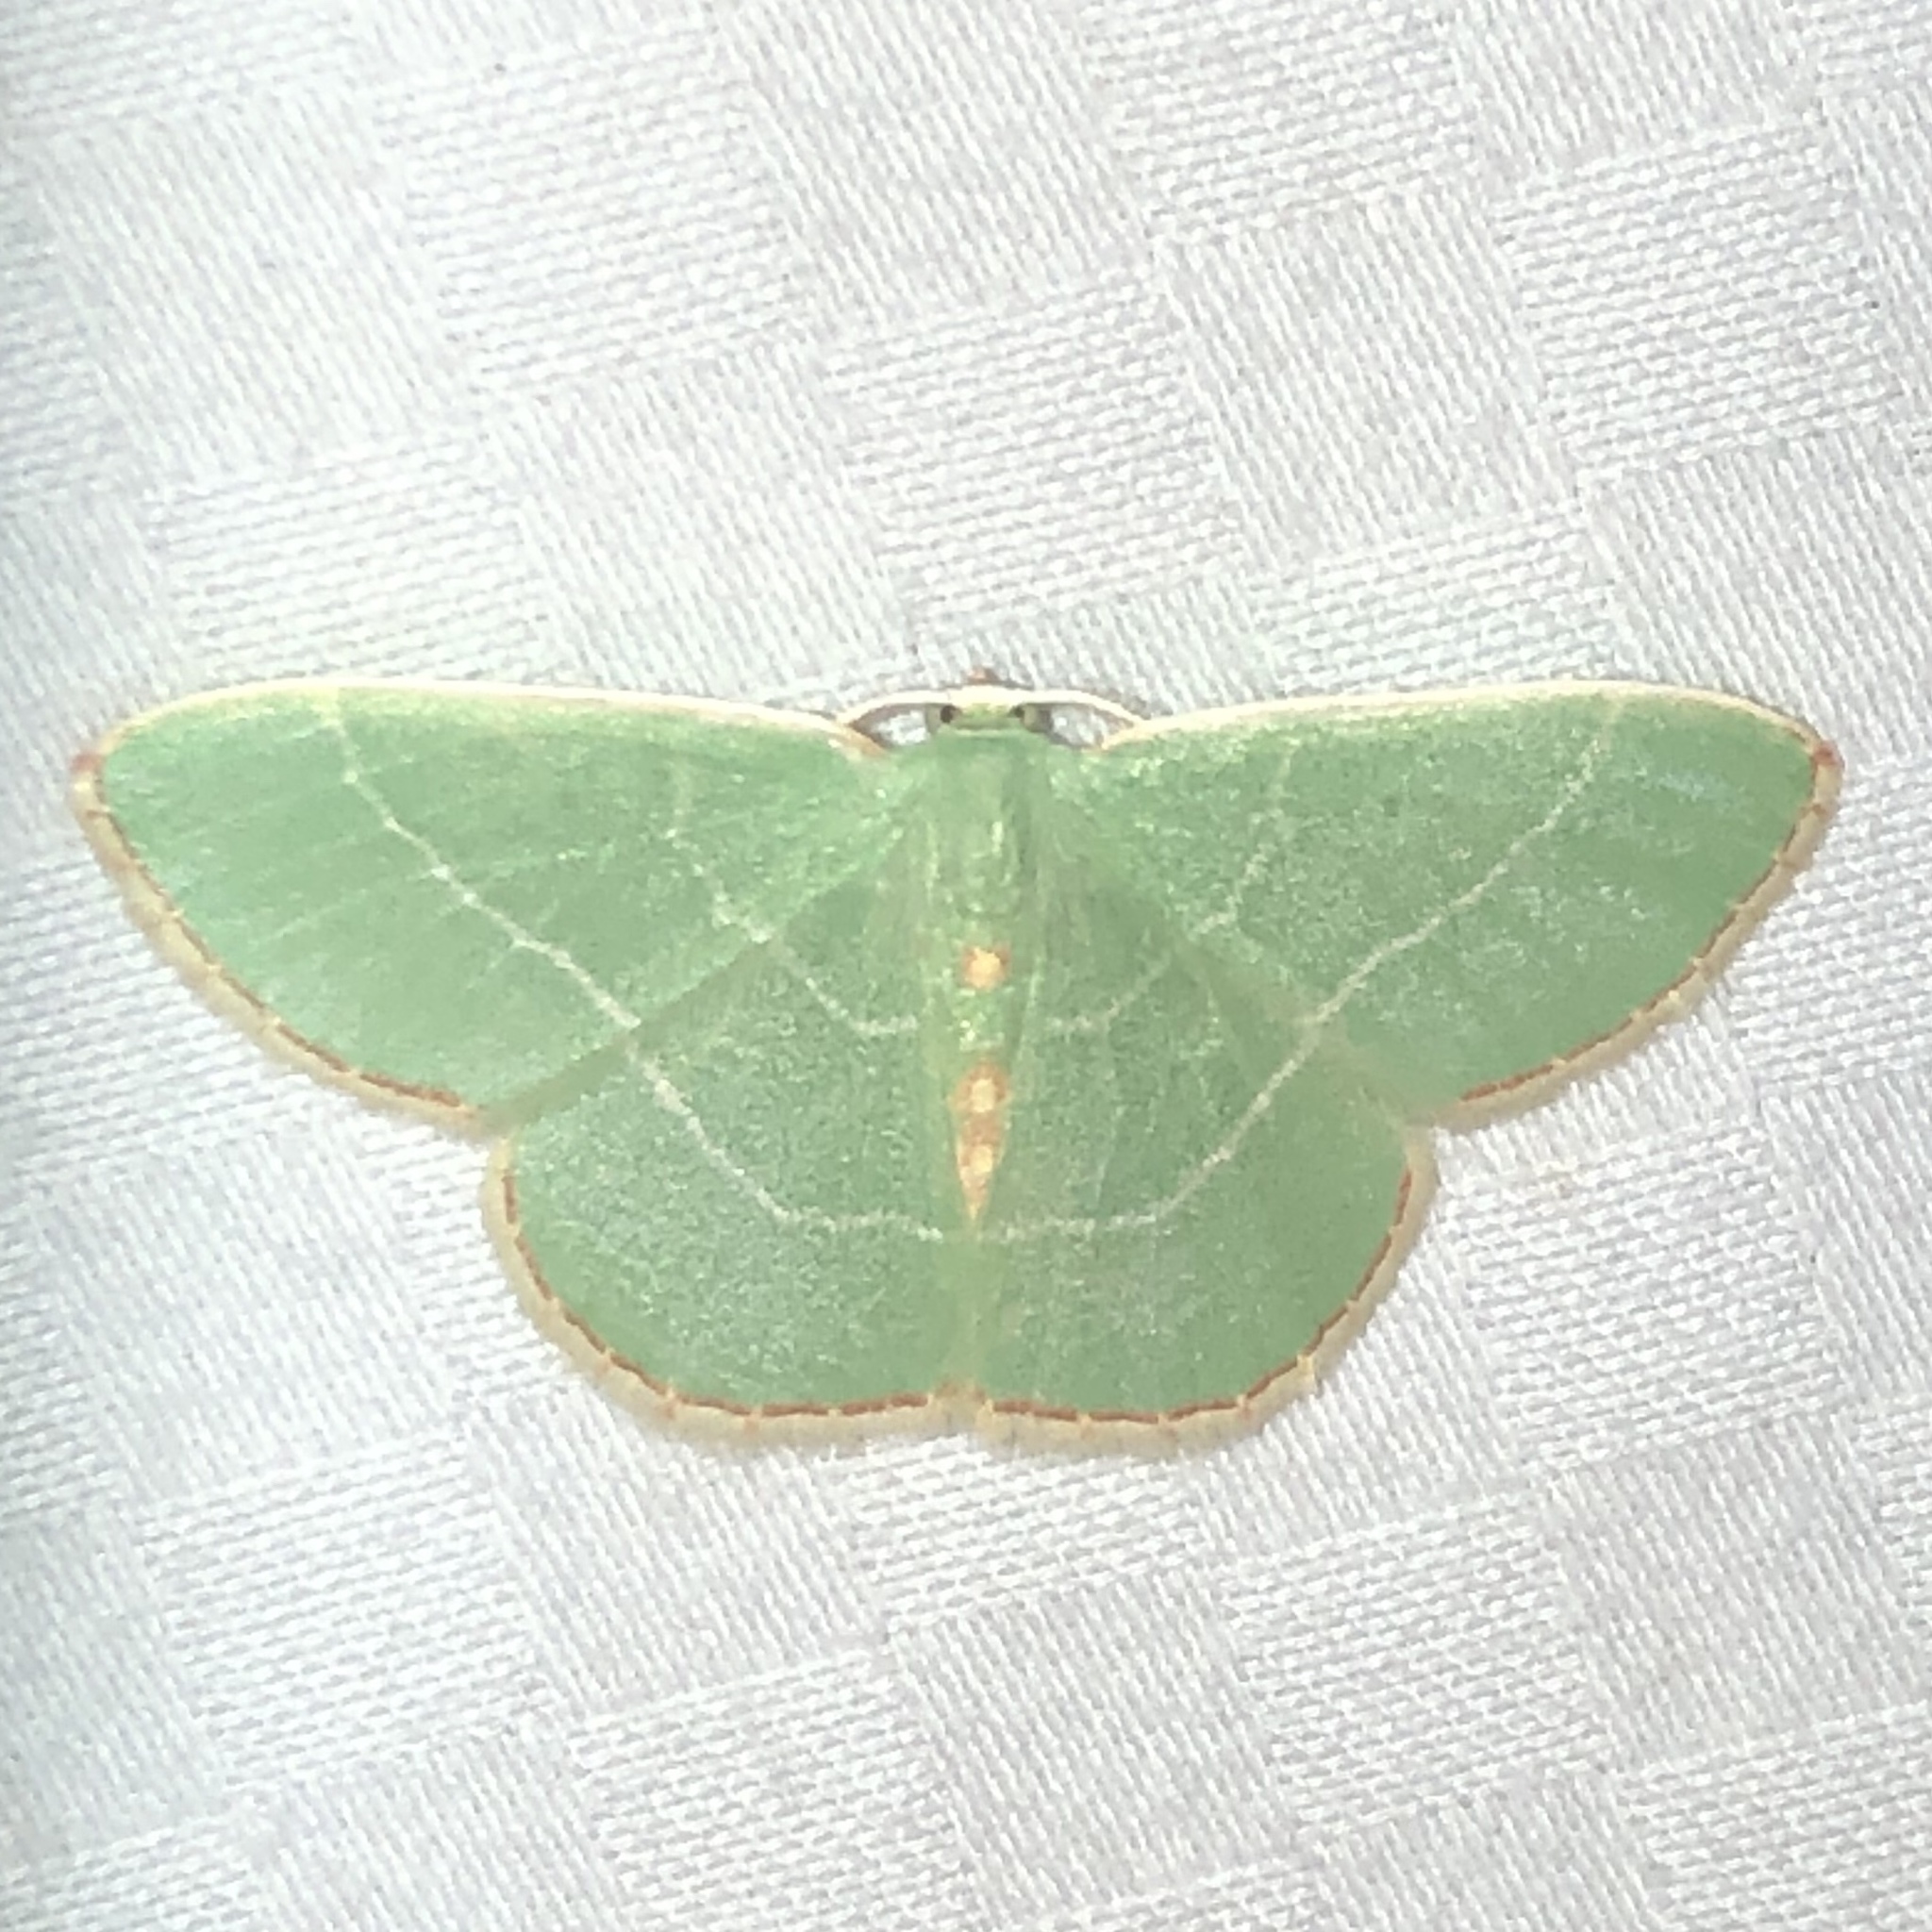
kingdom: Animalia
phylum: Arthropoda
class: Insecta
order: Lepidoptera
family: Geometridae
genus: Nemoria
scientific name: Nemoria bistriaria
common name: Red-fringed emerald
